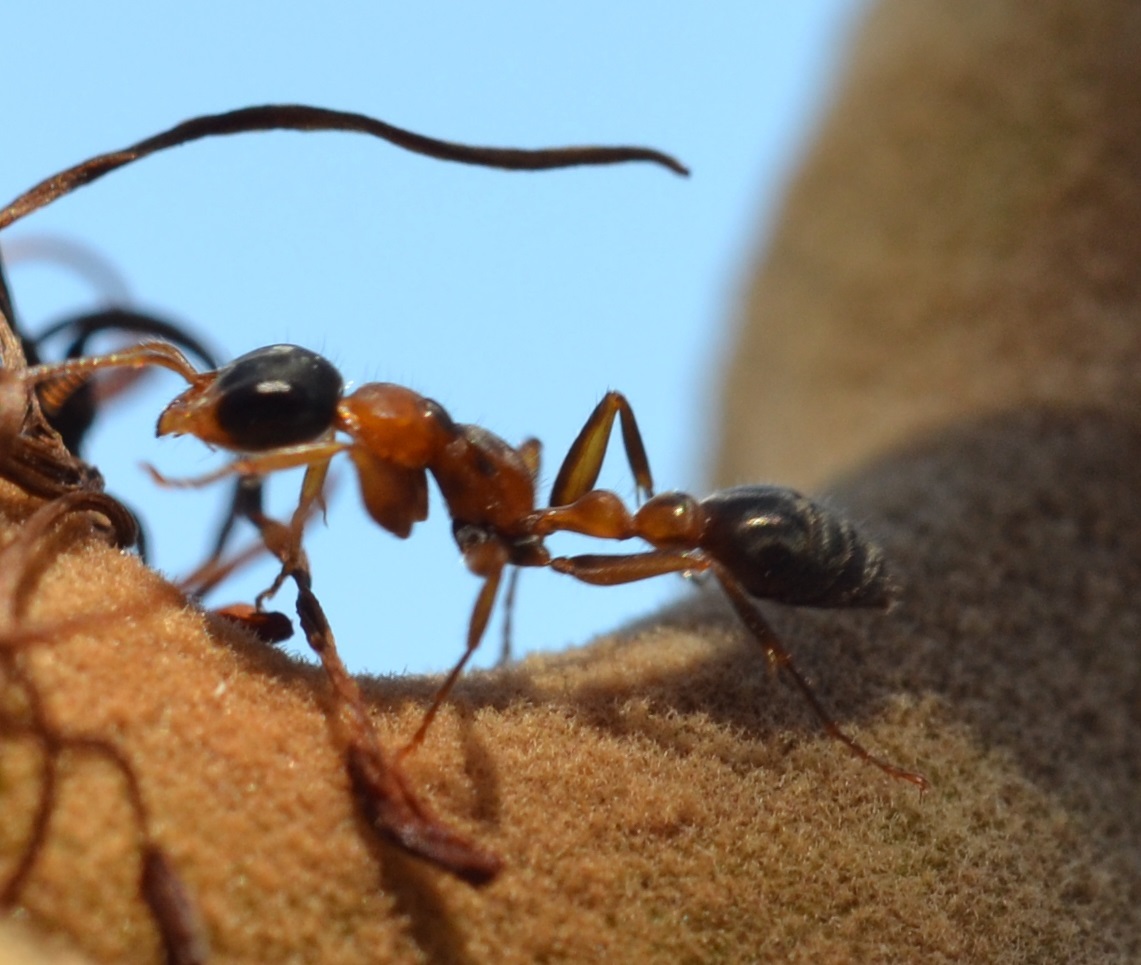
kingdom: Animalia
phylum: Arthropoda
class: Insecta
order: Hymenoptera
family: Formicidae
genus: Pseudomyrmex
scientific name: Pseudomyrmex gracilis
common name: Graceful twig ant
